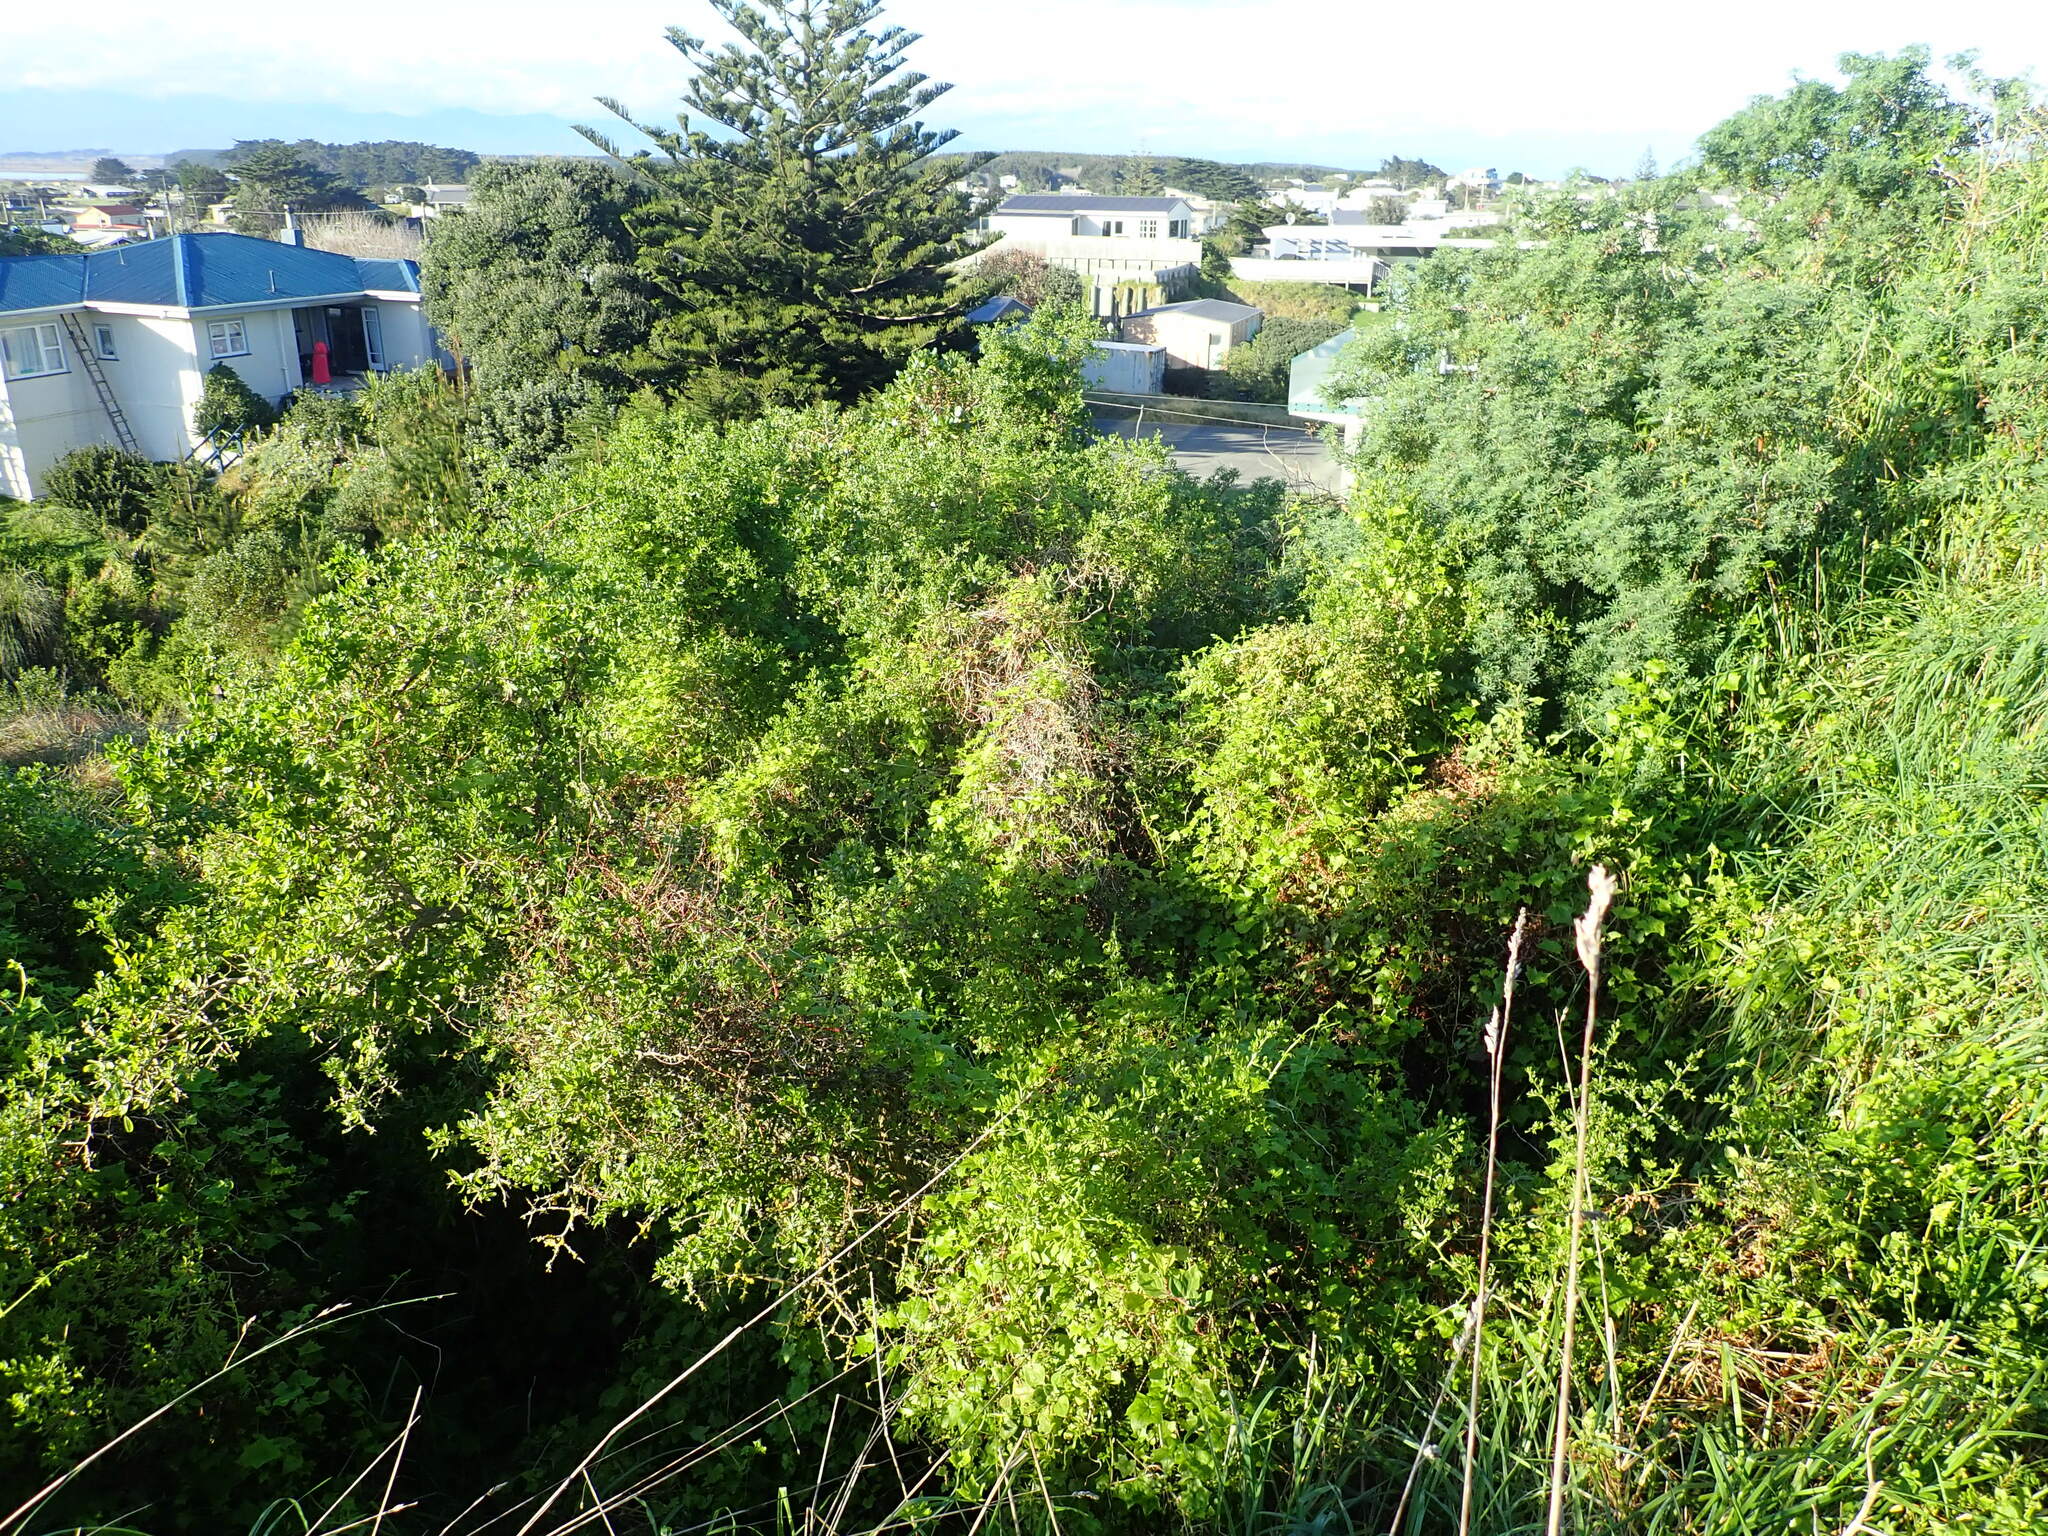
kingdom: Plantae
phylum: Tracheophyta
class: Magnoliopsida
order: Solanales
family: Solanaceae
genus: Lycium
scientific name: Lycium ferocissimum
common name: African boxthorn
